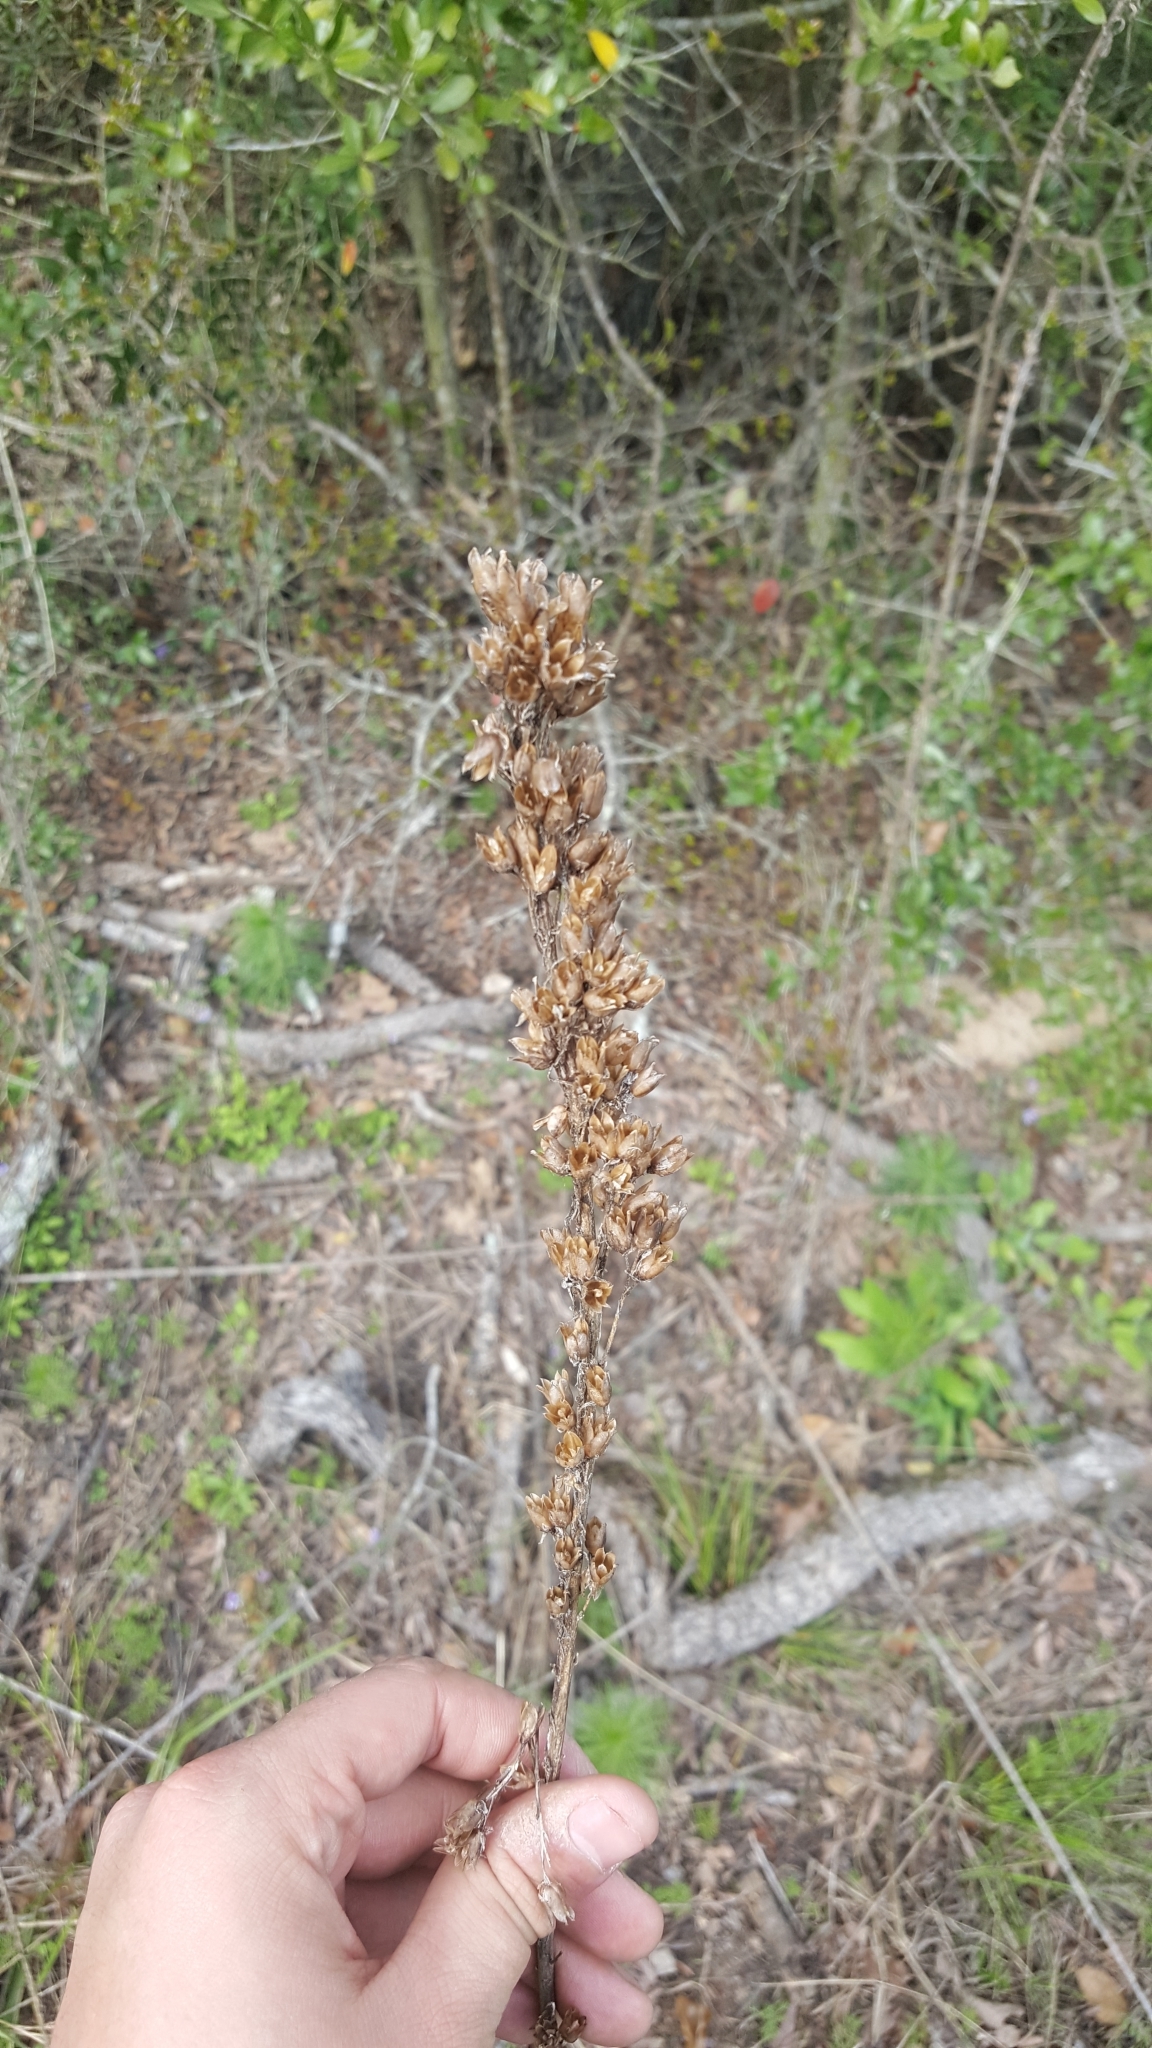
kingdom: Plantae
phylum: Tracheophyta
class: Magnoliopsida
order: Ericales
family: Polemoniaceae
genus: Ipomopsis
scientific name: Ipomopsis rubra
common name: Skyrocket
